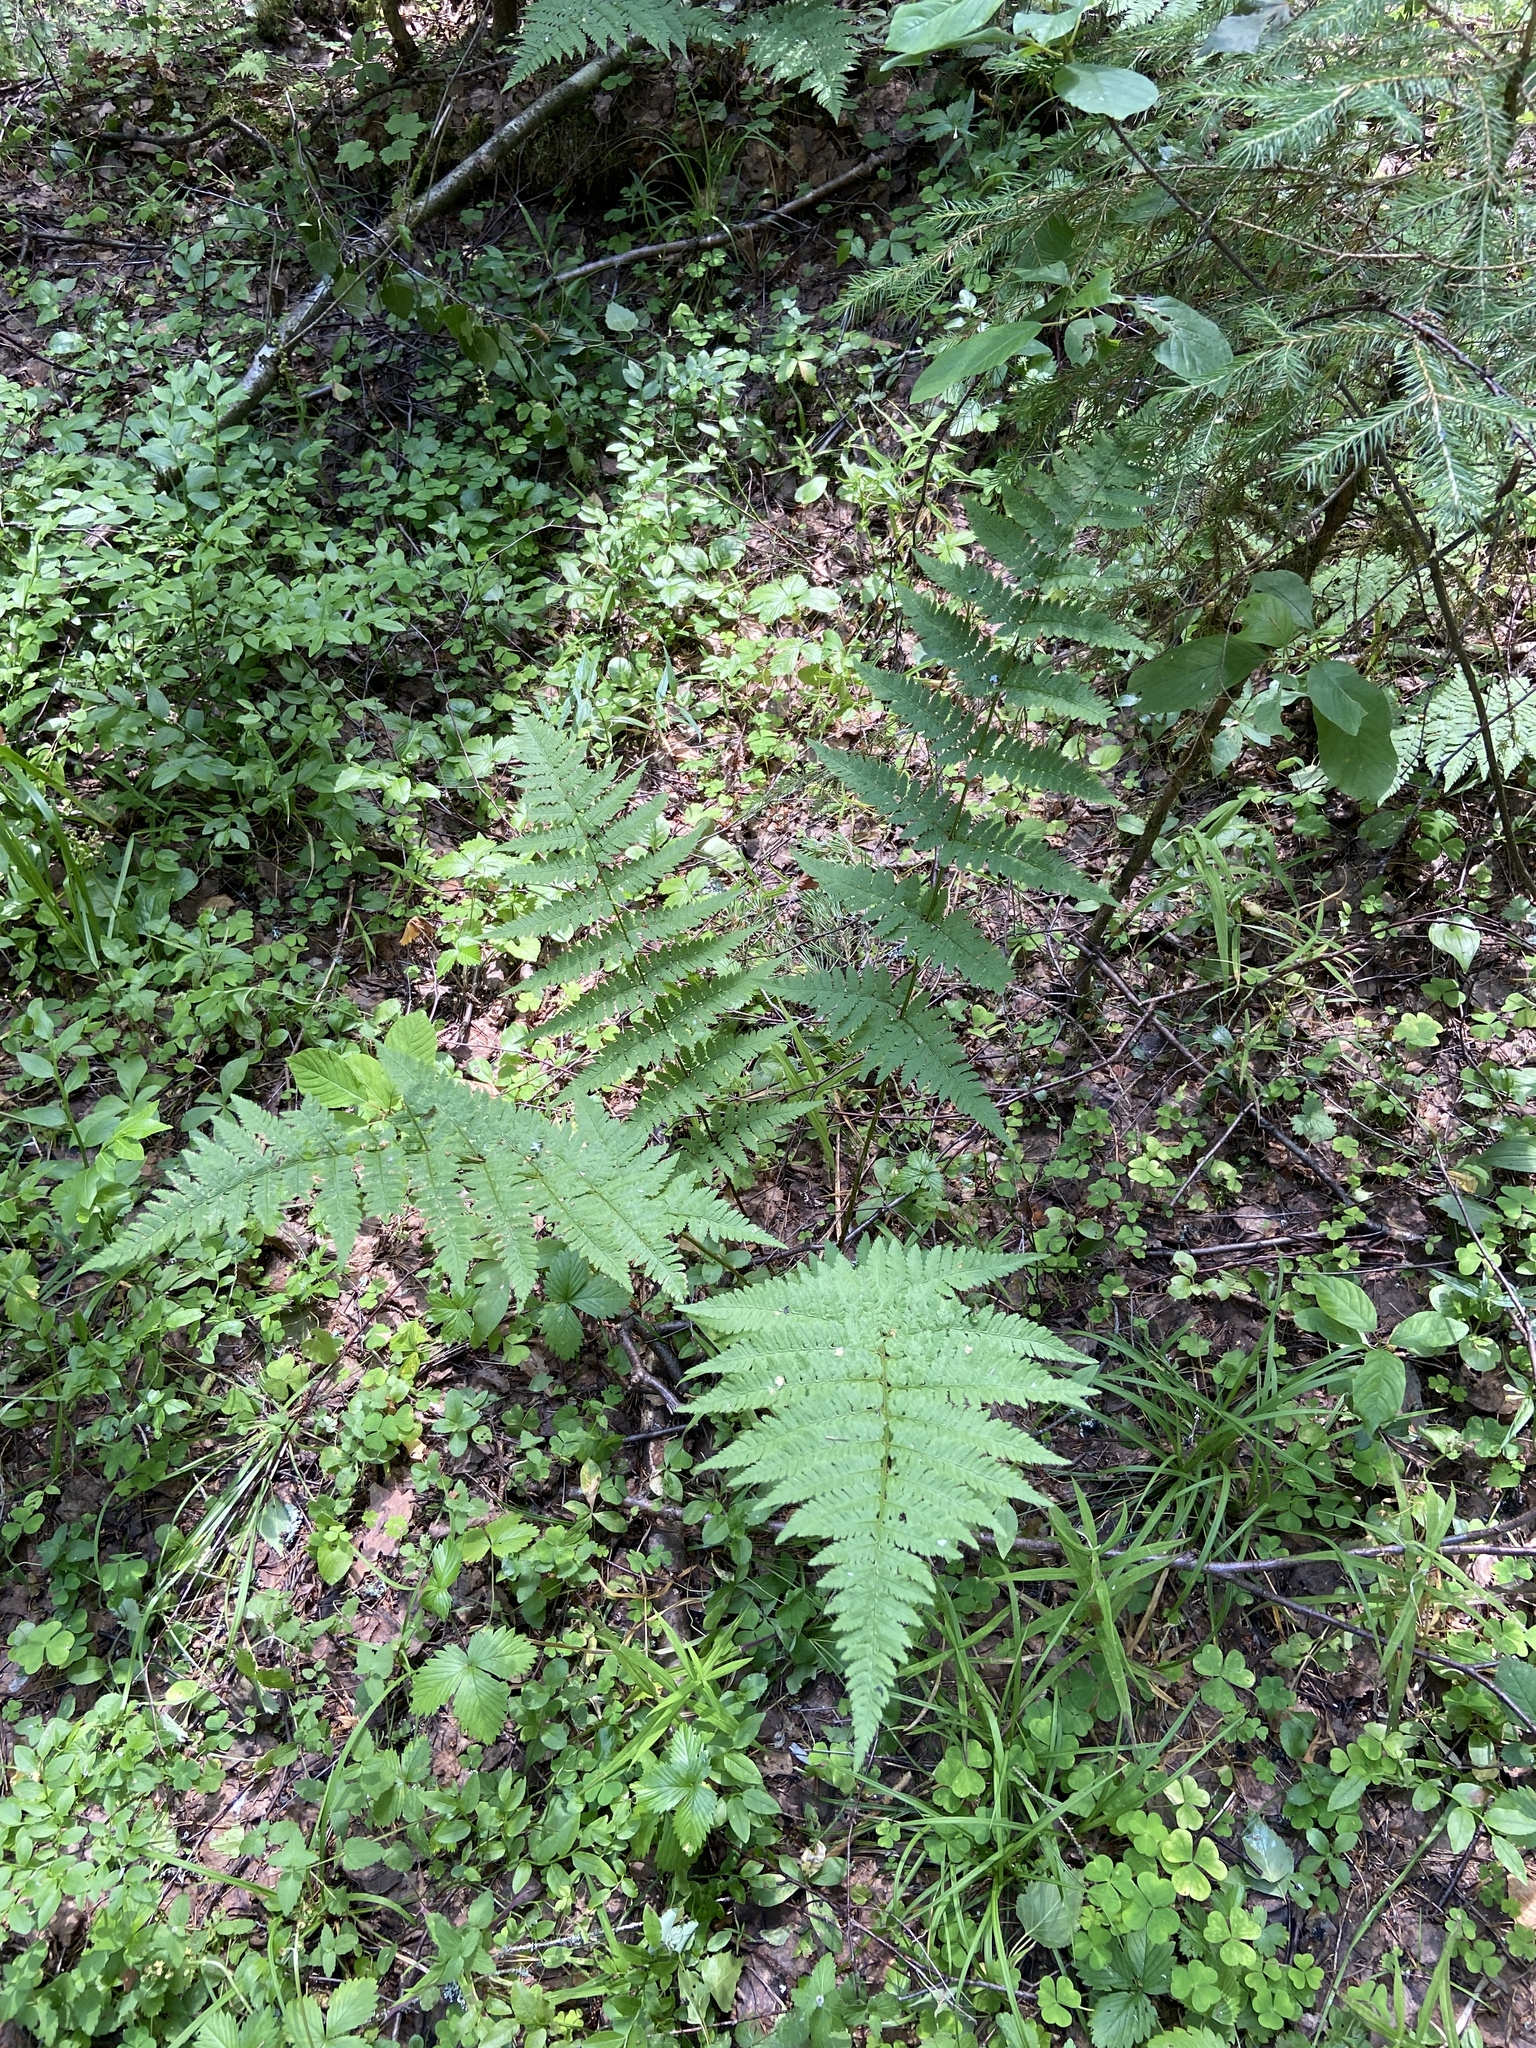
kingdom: Plantae
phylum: Tracheophyta
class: Polypodiopsida
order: Polypodiales
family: Dryopteridaceae
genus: Dryopteris
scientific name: Dryopteris carthusiana
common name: Narrow buckler-fern
